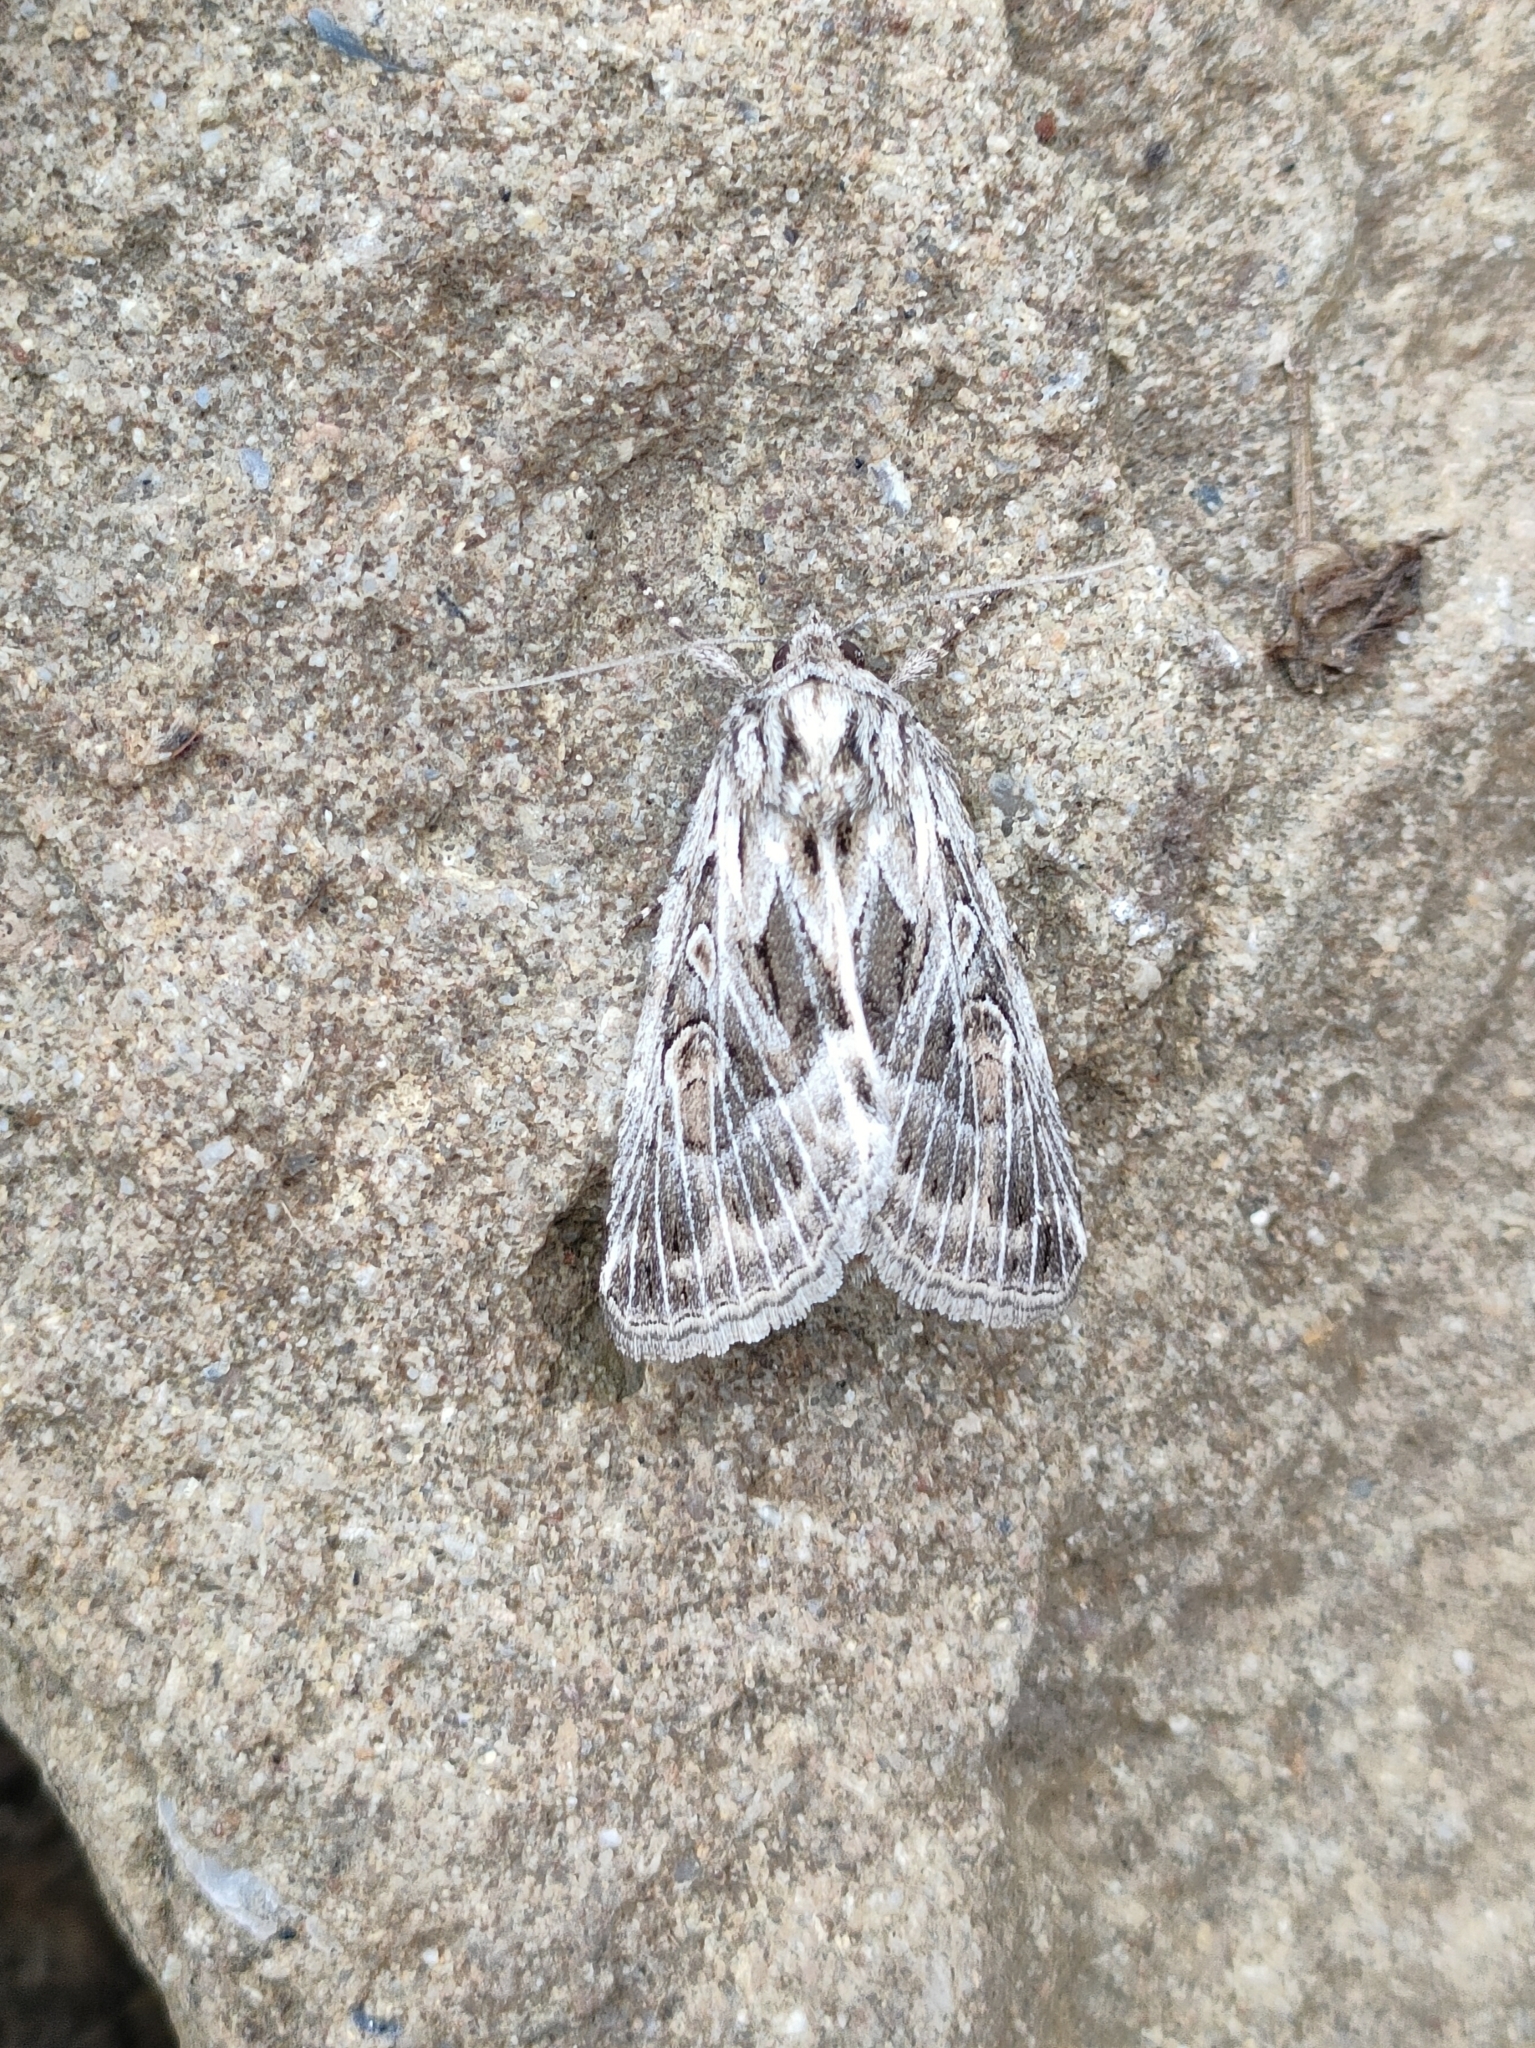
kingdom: Animalia
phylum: Arthropoda
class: Insecta
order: Lepidoptera
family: Noctuidae
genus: Thalpophila
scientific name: Thalpophila vitalba
